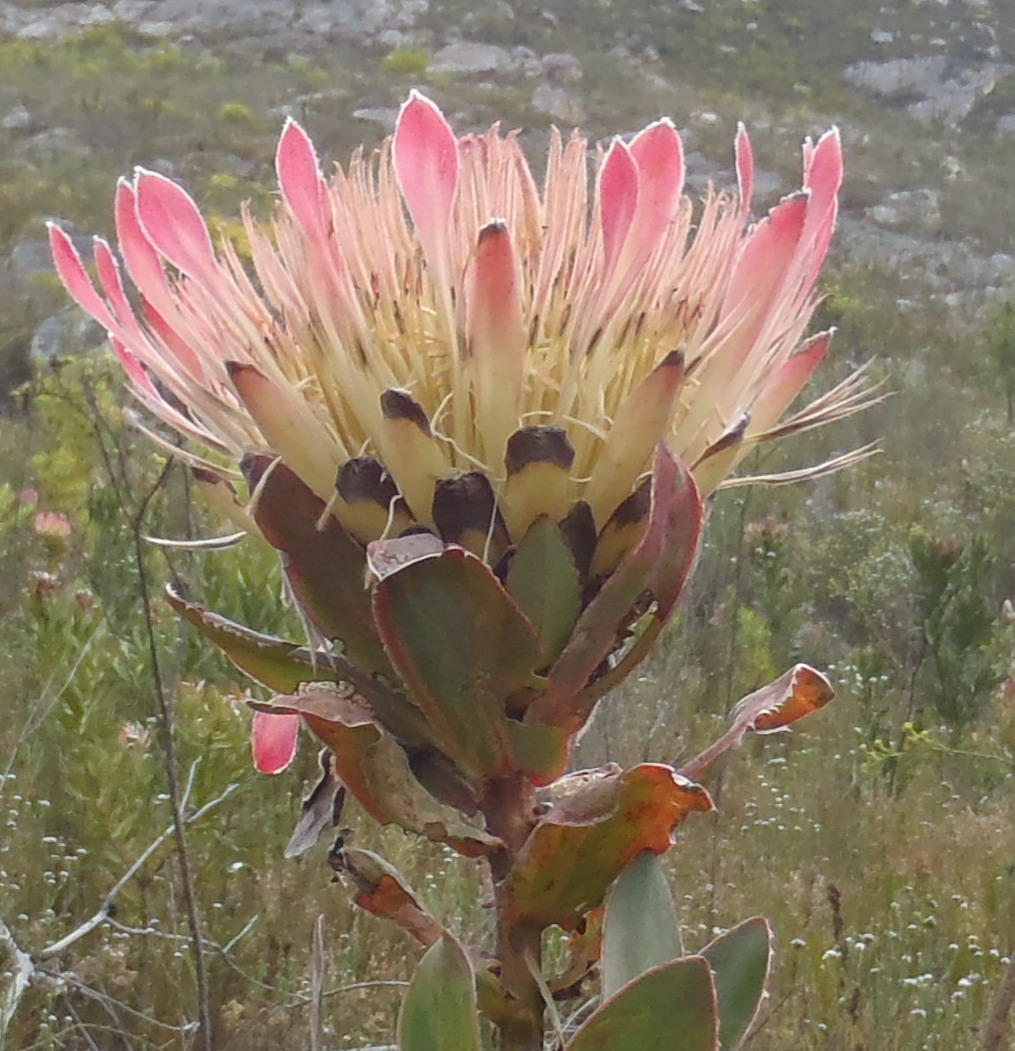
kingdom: Plantae
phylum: Tracheophyta
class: Magnoliopsida
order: Proteales
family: Proteaceae
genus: Protea
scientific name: Protea eximia
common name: Broad-leaved sugarbush
